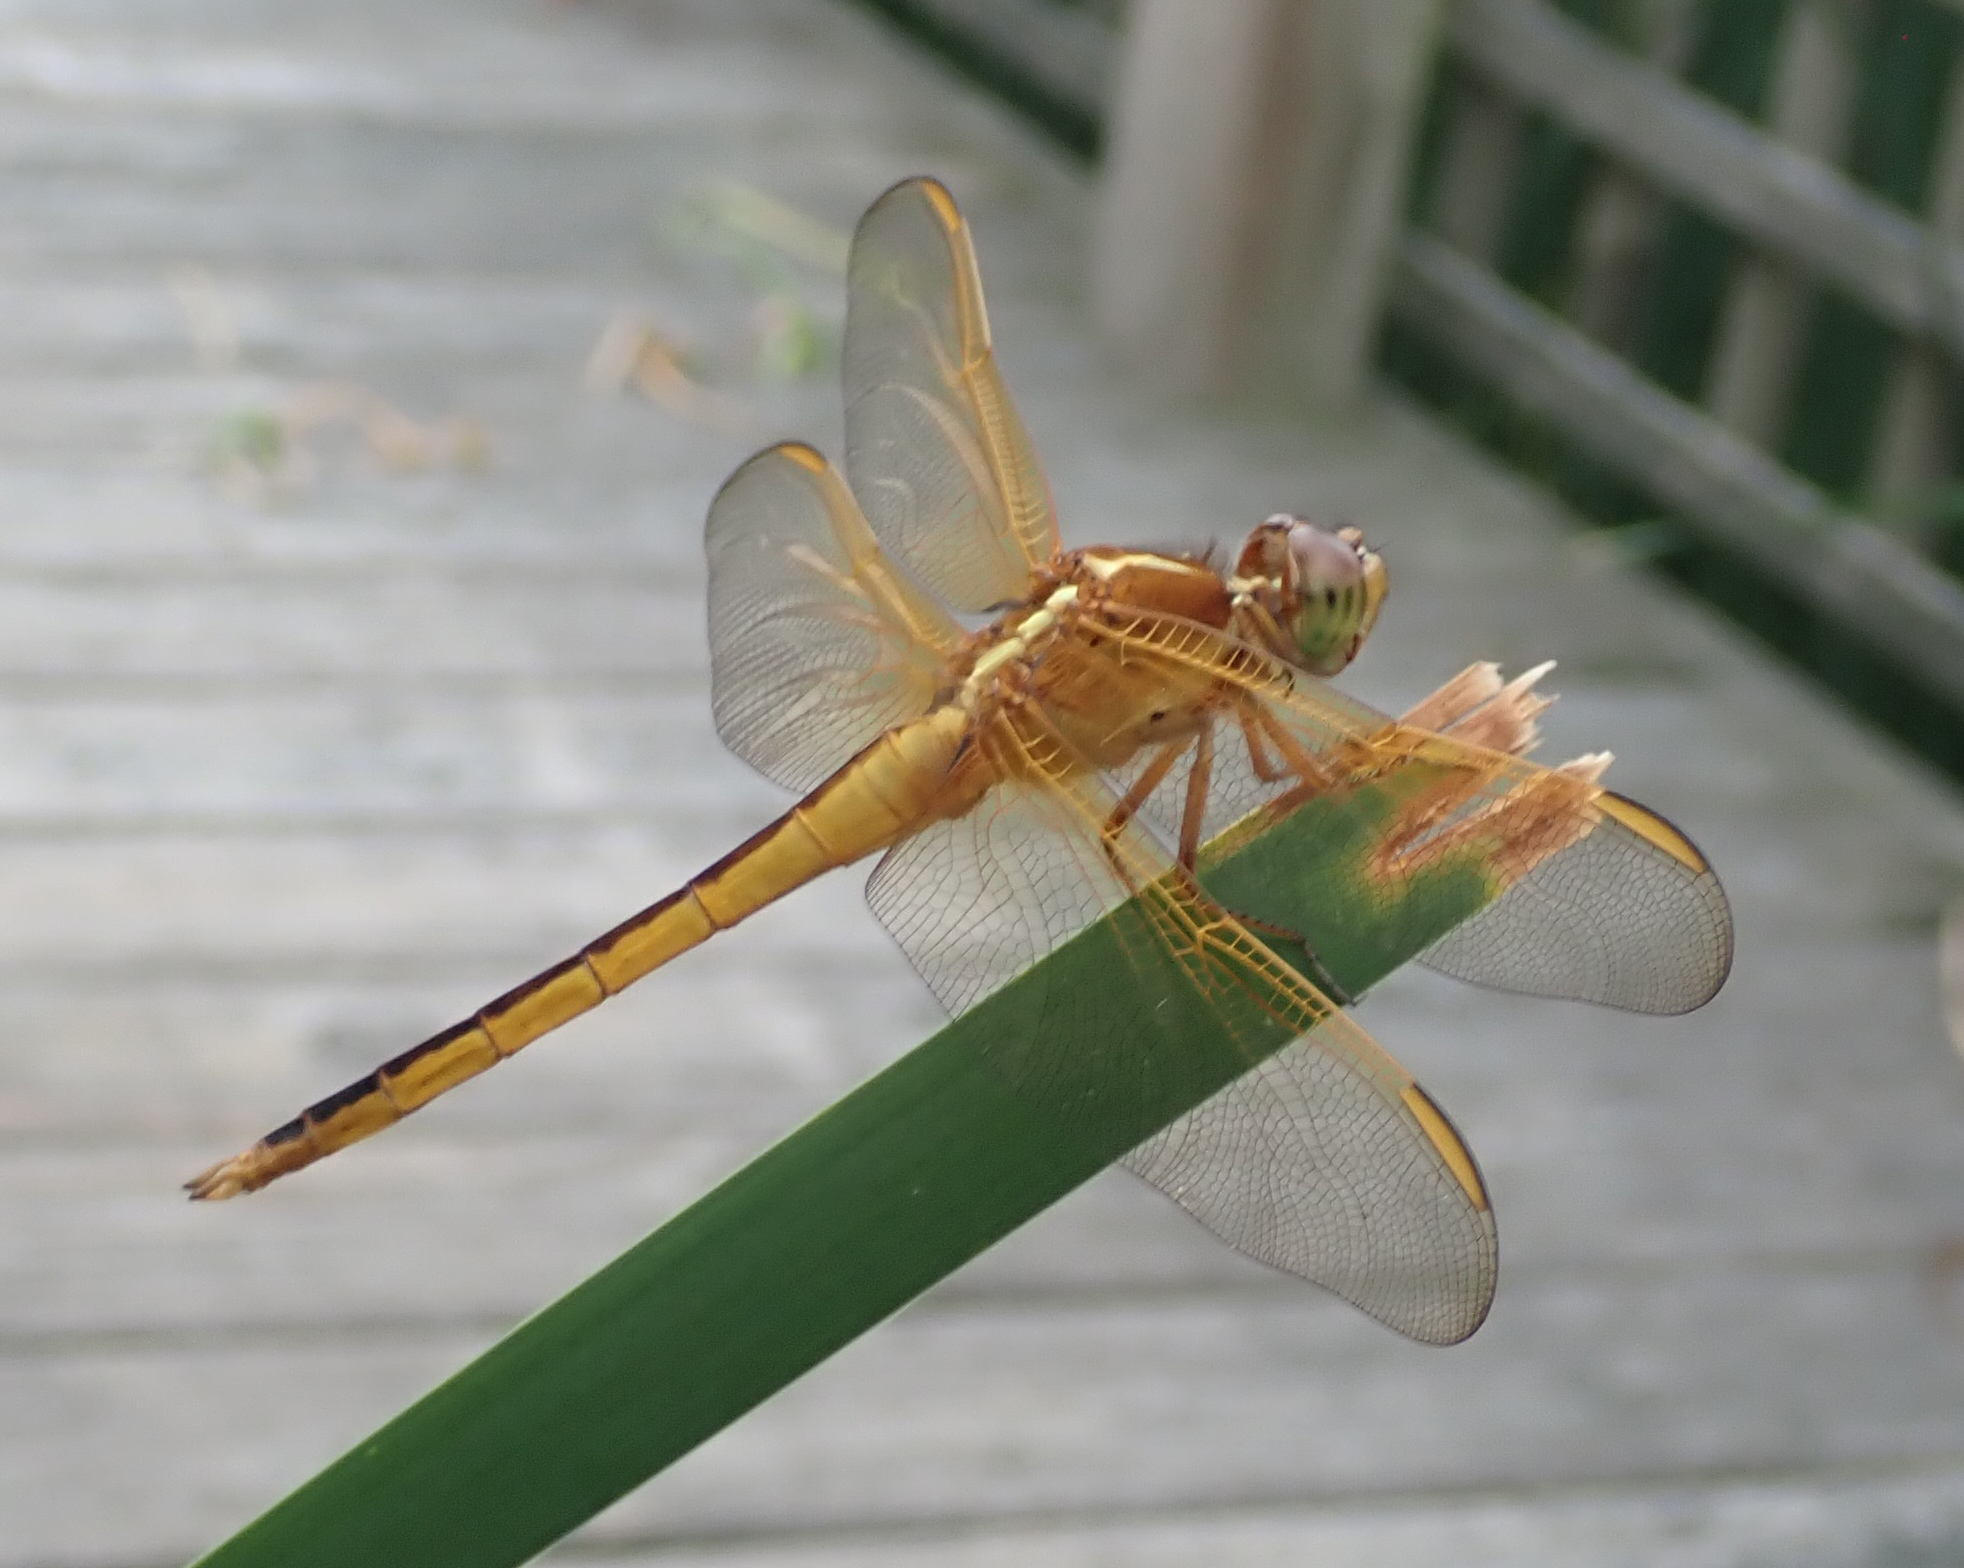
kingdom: Animalia
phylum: Arthropoda
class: Insecta
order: Odonata
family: Libellulidae
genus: Libellula
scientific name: Libellula needhami
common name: Needham's skimmer
